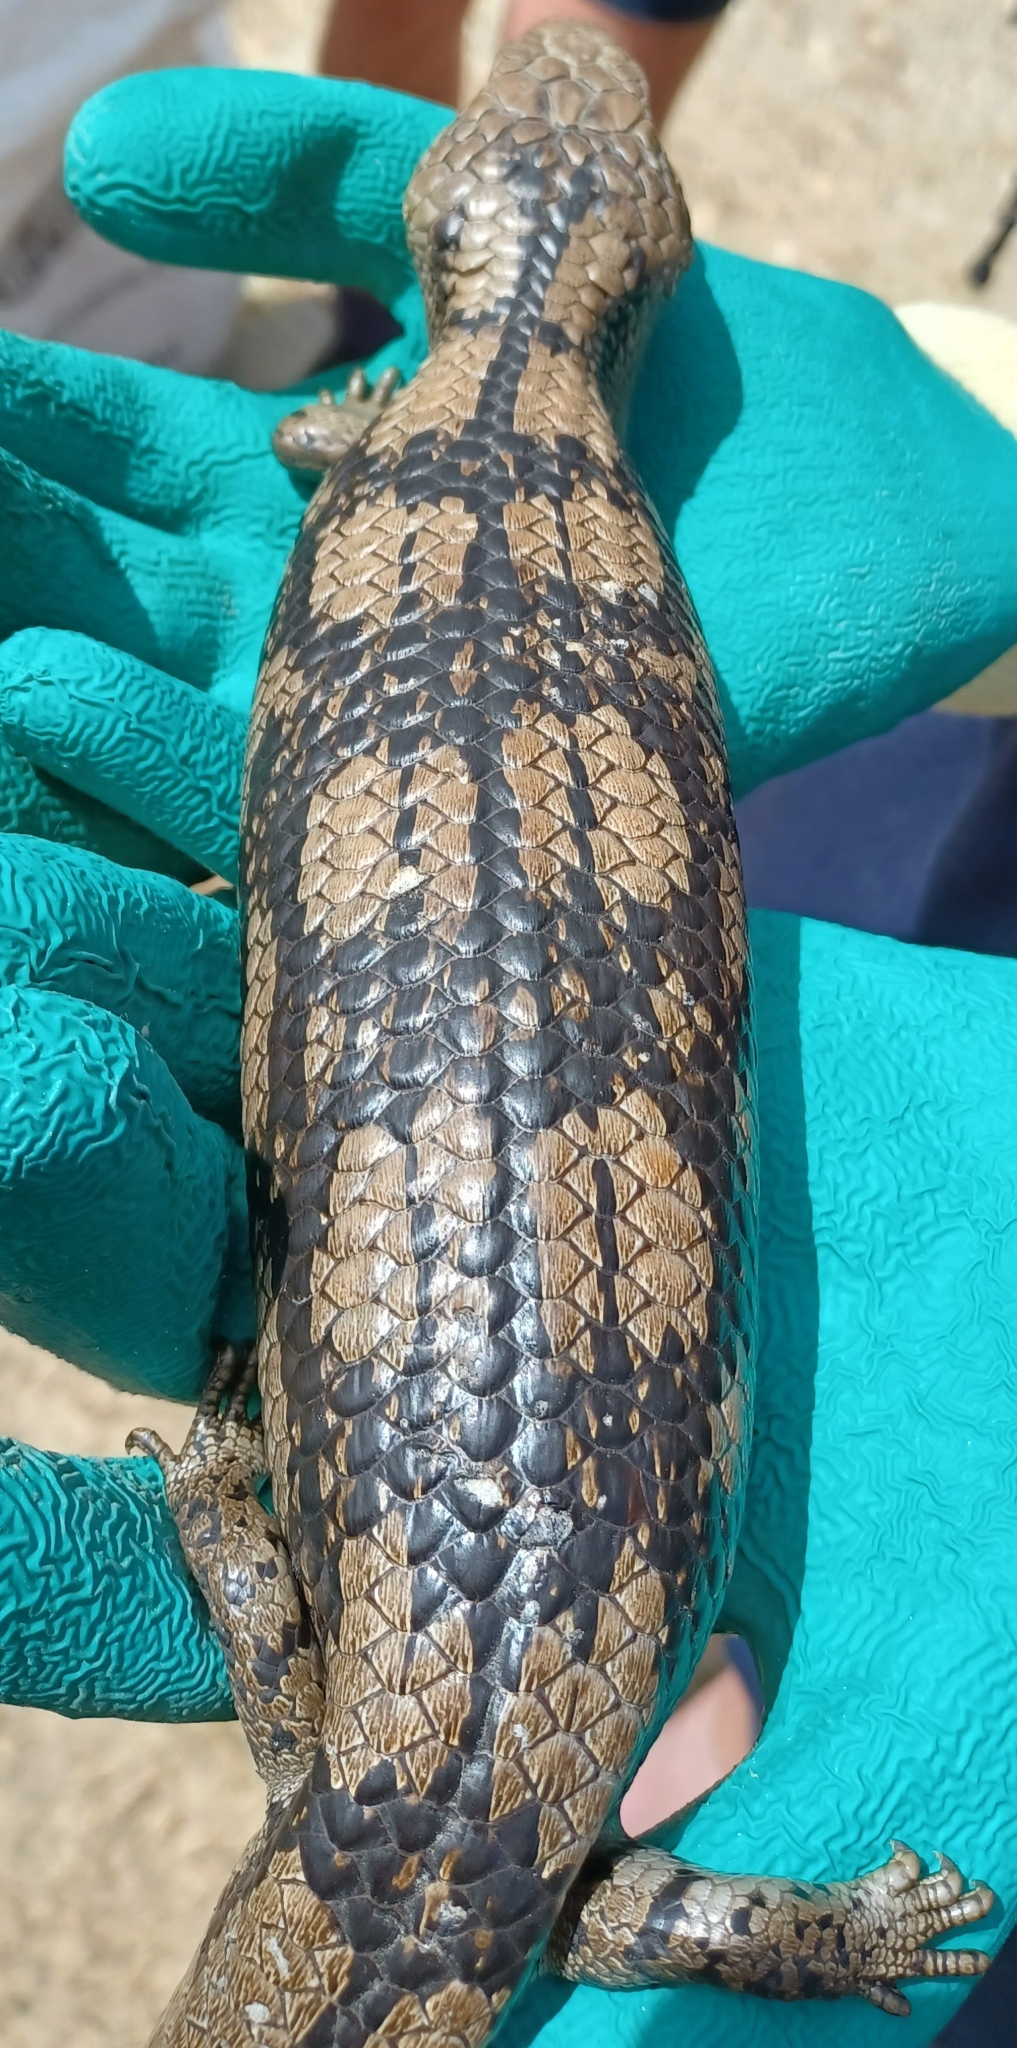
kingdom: Animalia
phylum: Chordata
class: Squamata
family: Scincidae
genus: Tiliqua
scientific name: Tiliqua nigrolutea
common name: Blotched blue-tongued lizard
